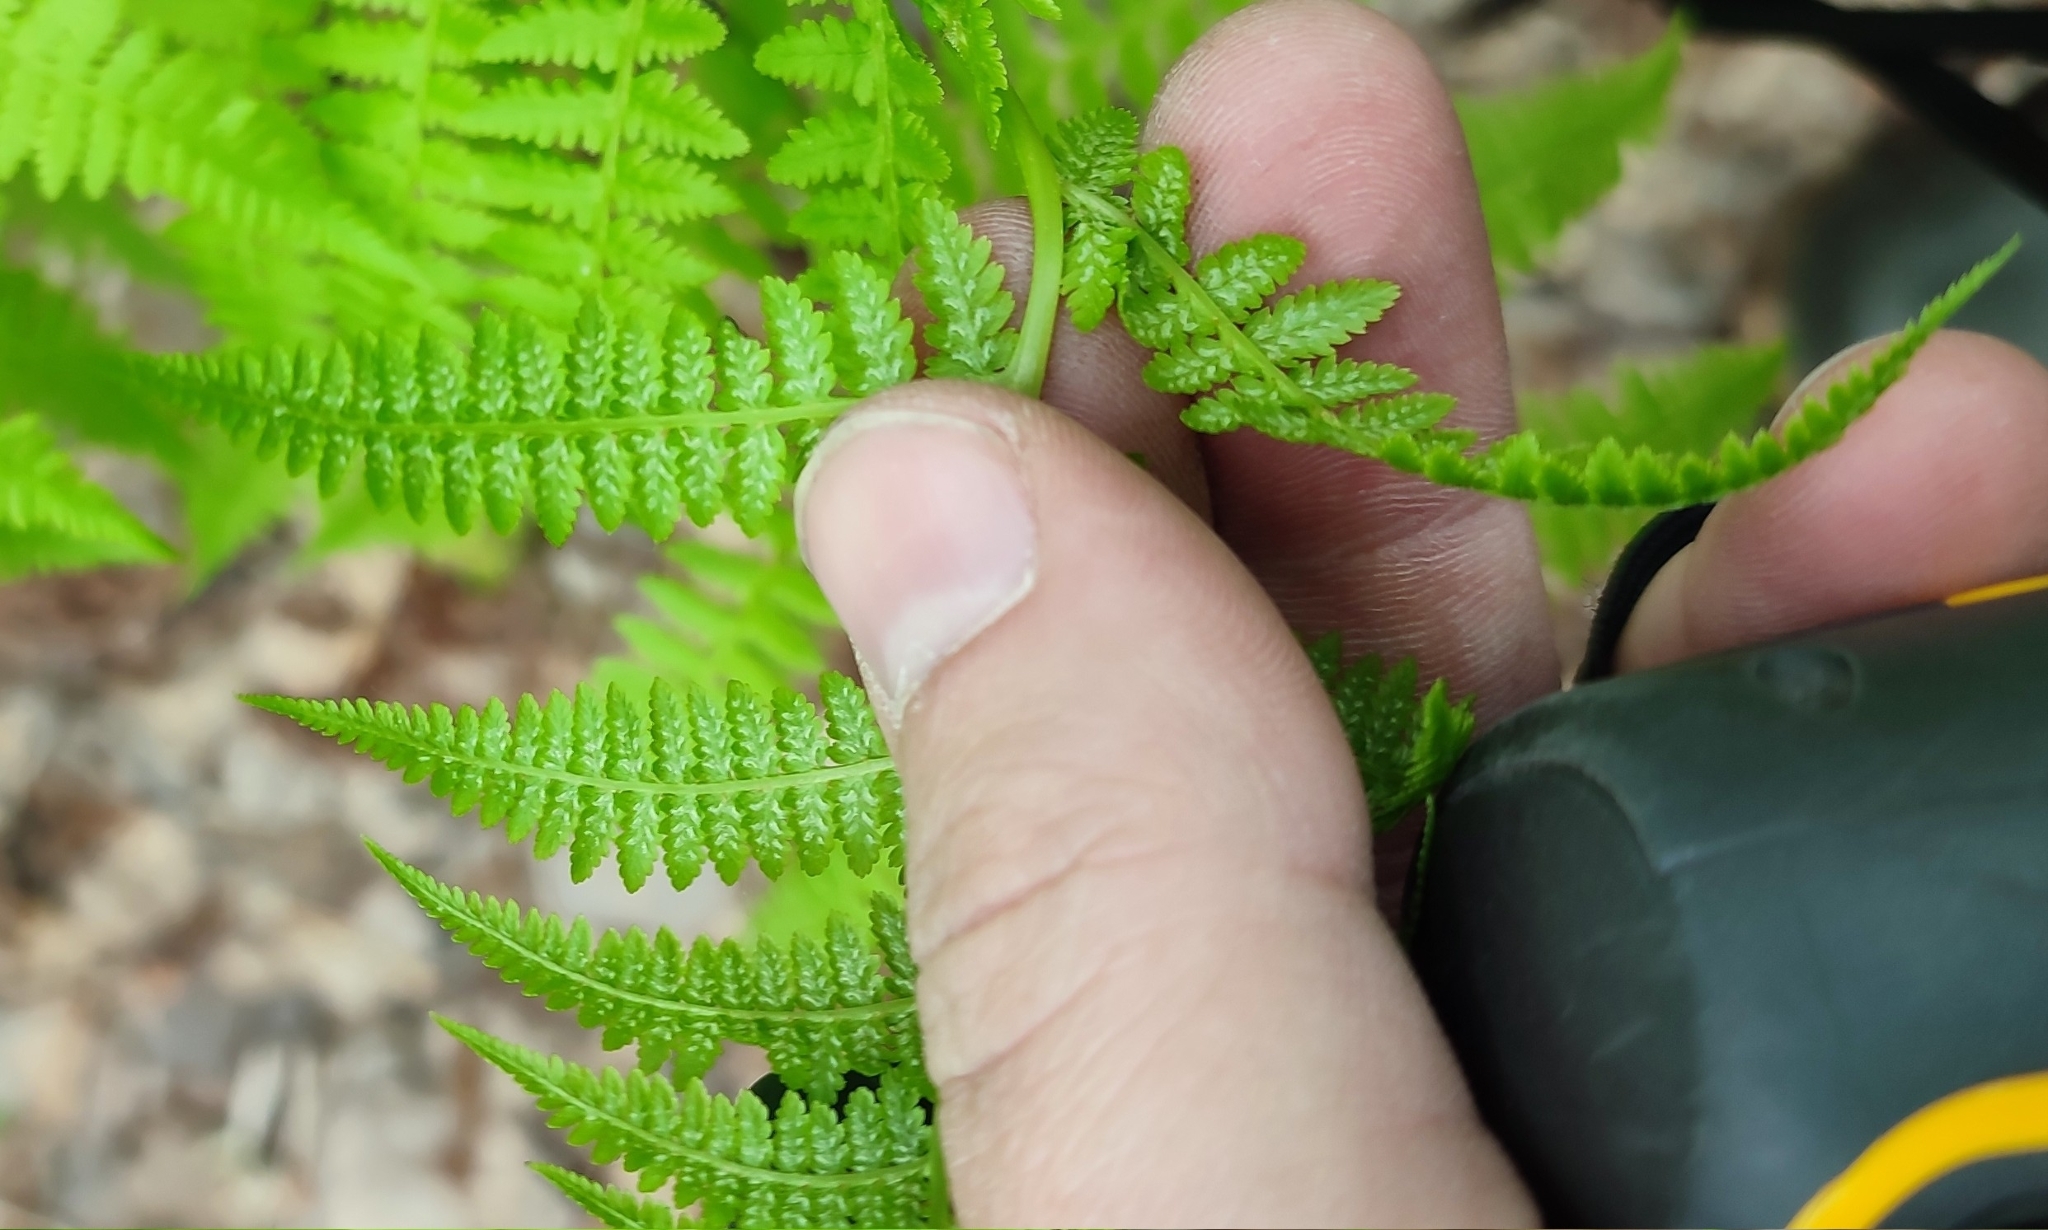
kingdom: Plantae
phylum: Tracheophyta
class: Polypodiopsida
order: Polypodiales
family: Athyriaceae
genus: Athyrium
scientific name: Athyrium filix-femina
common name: Lady fern
